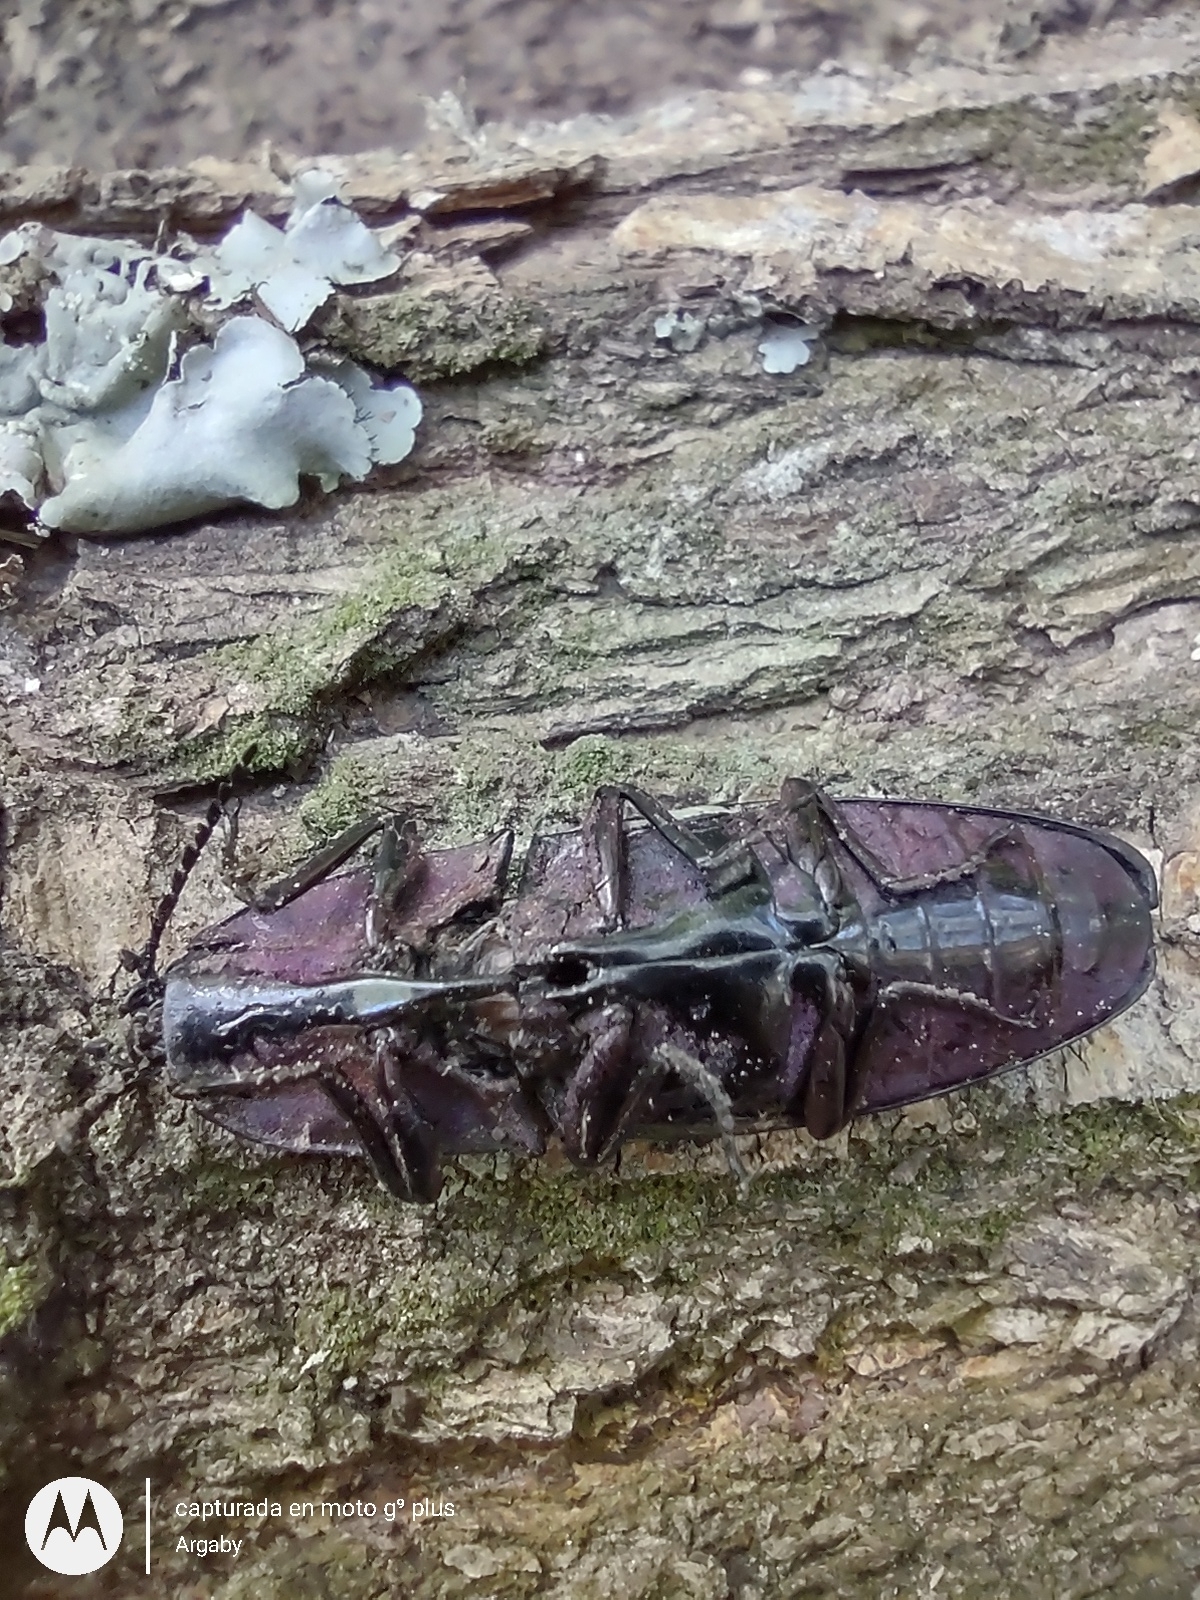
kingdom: Animalia
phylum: Arthropoda
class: Insecta
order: Coleoptera
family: Elateridae
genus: Chalcolepidius
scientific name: Chalcolepidius
